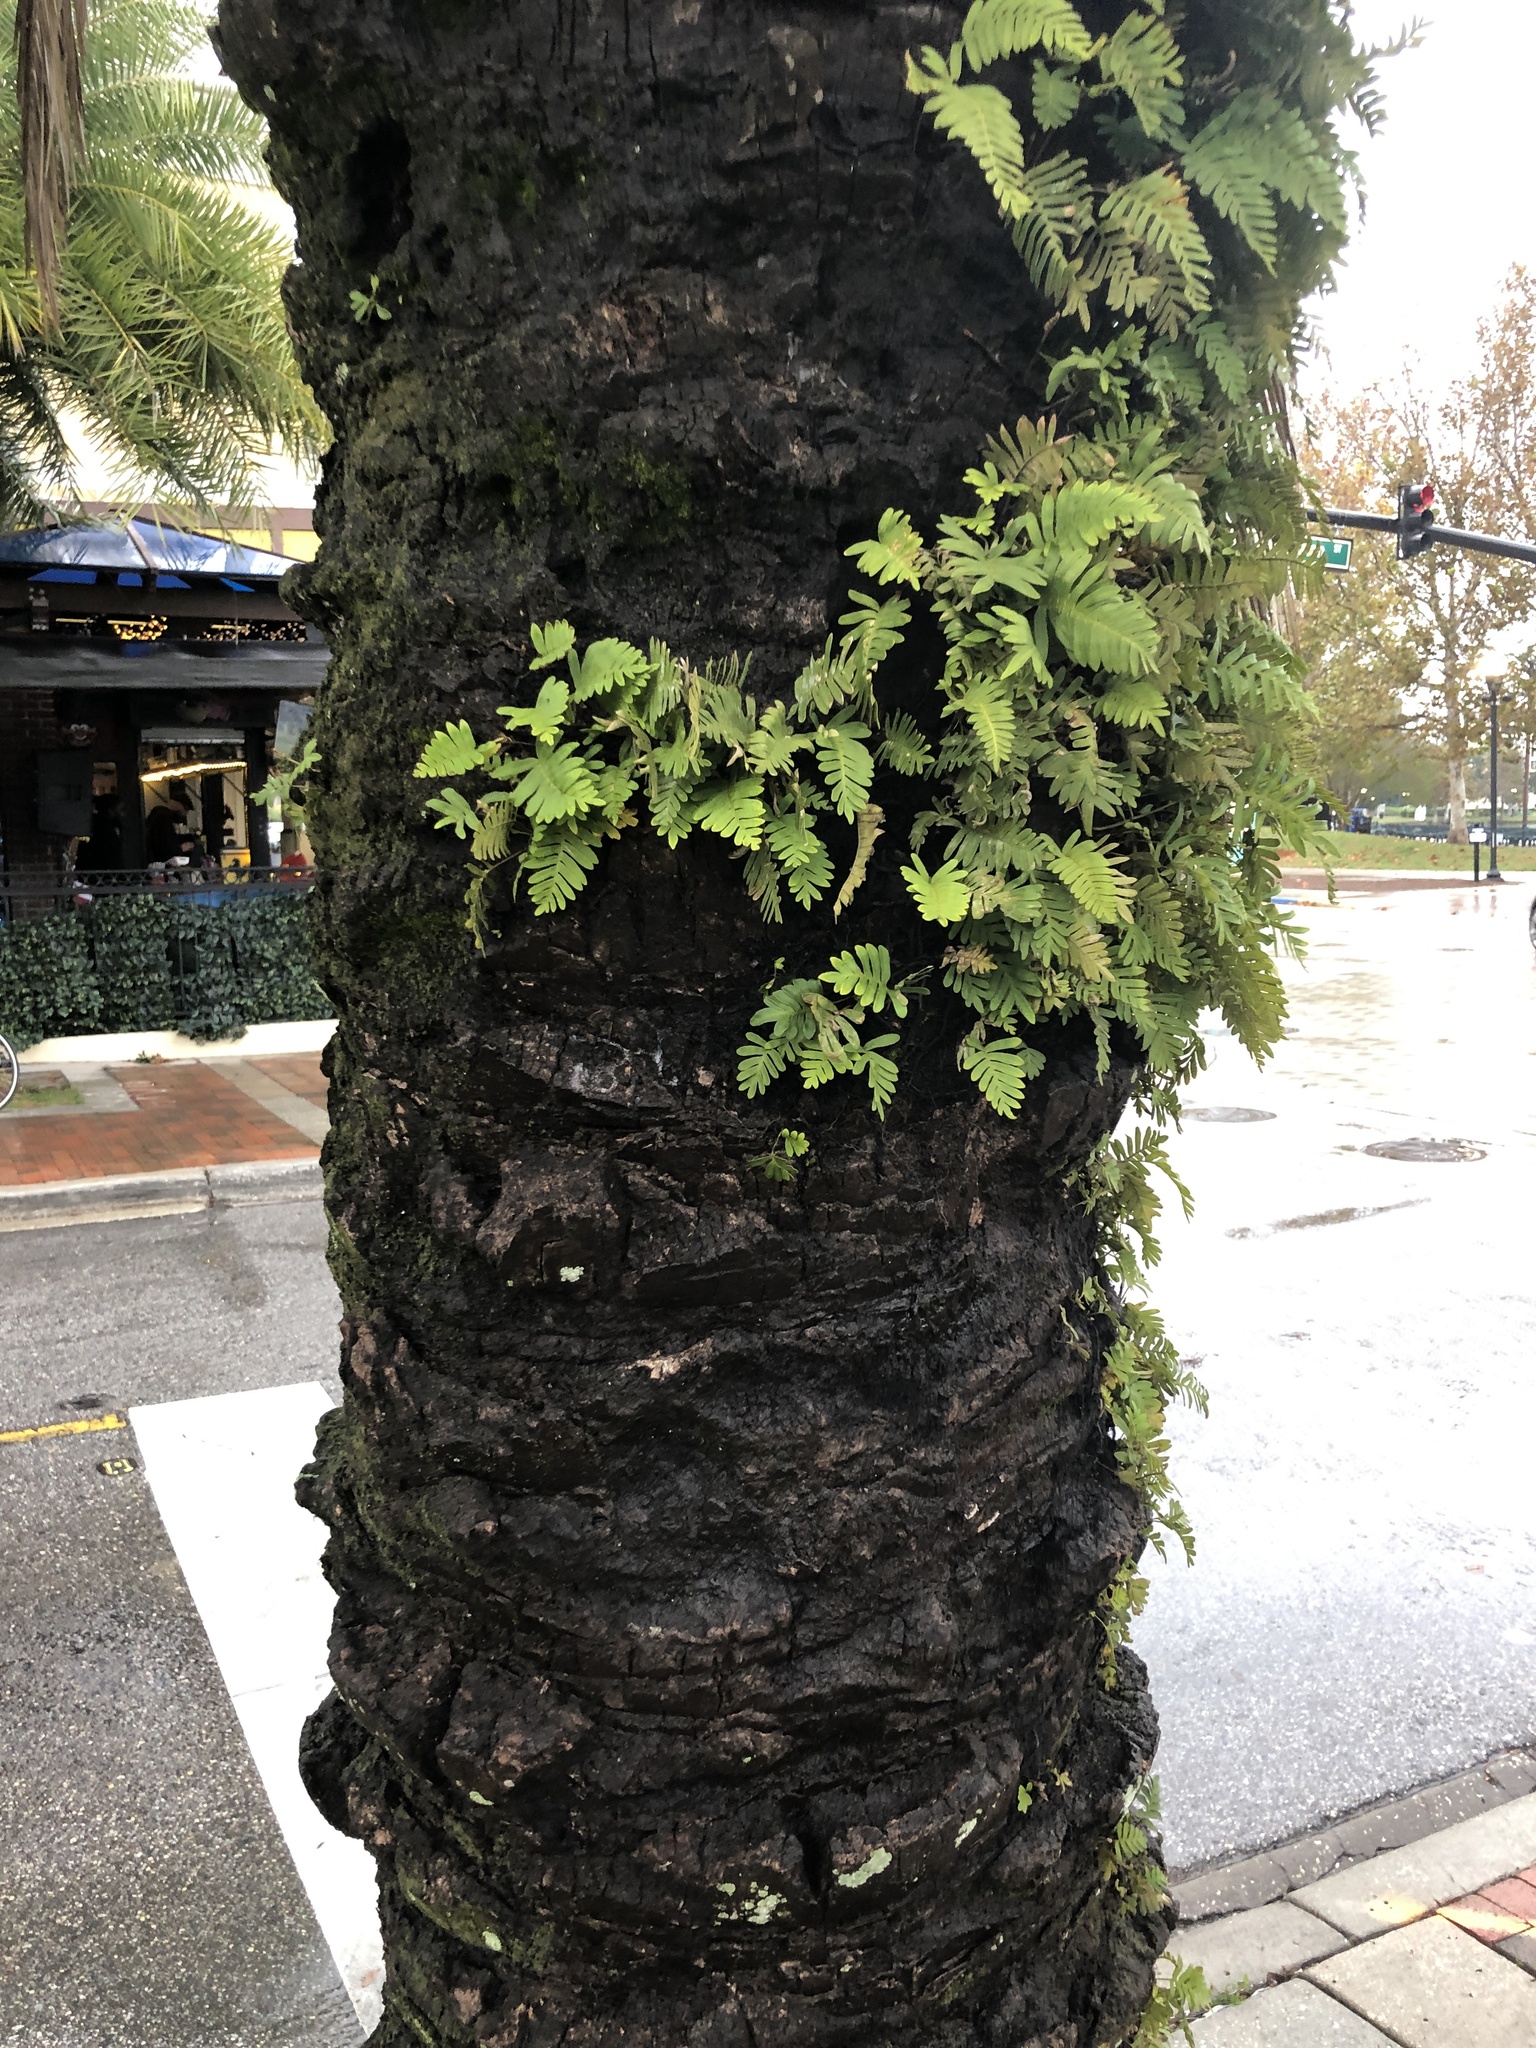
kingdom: Plantae
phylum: Tracheophyta
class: Polypodiopsida
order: Polypodiales
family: Polypodiaceae
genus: Pleopeltis
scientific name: Pleopeltis michauxiana
